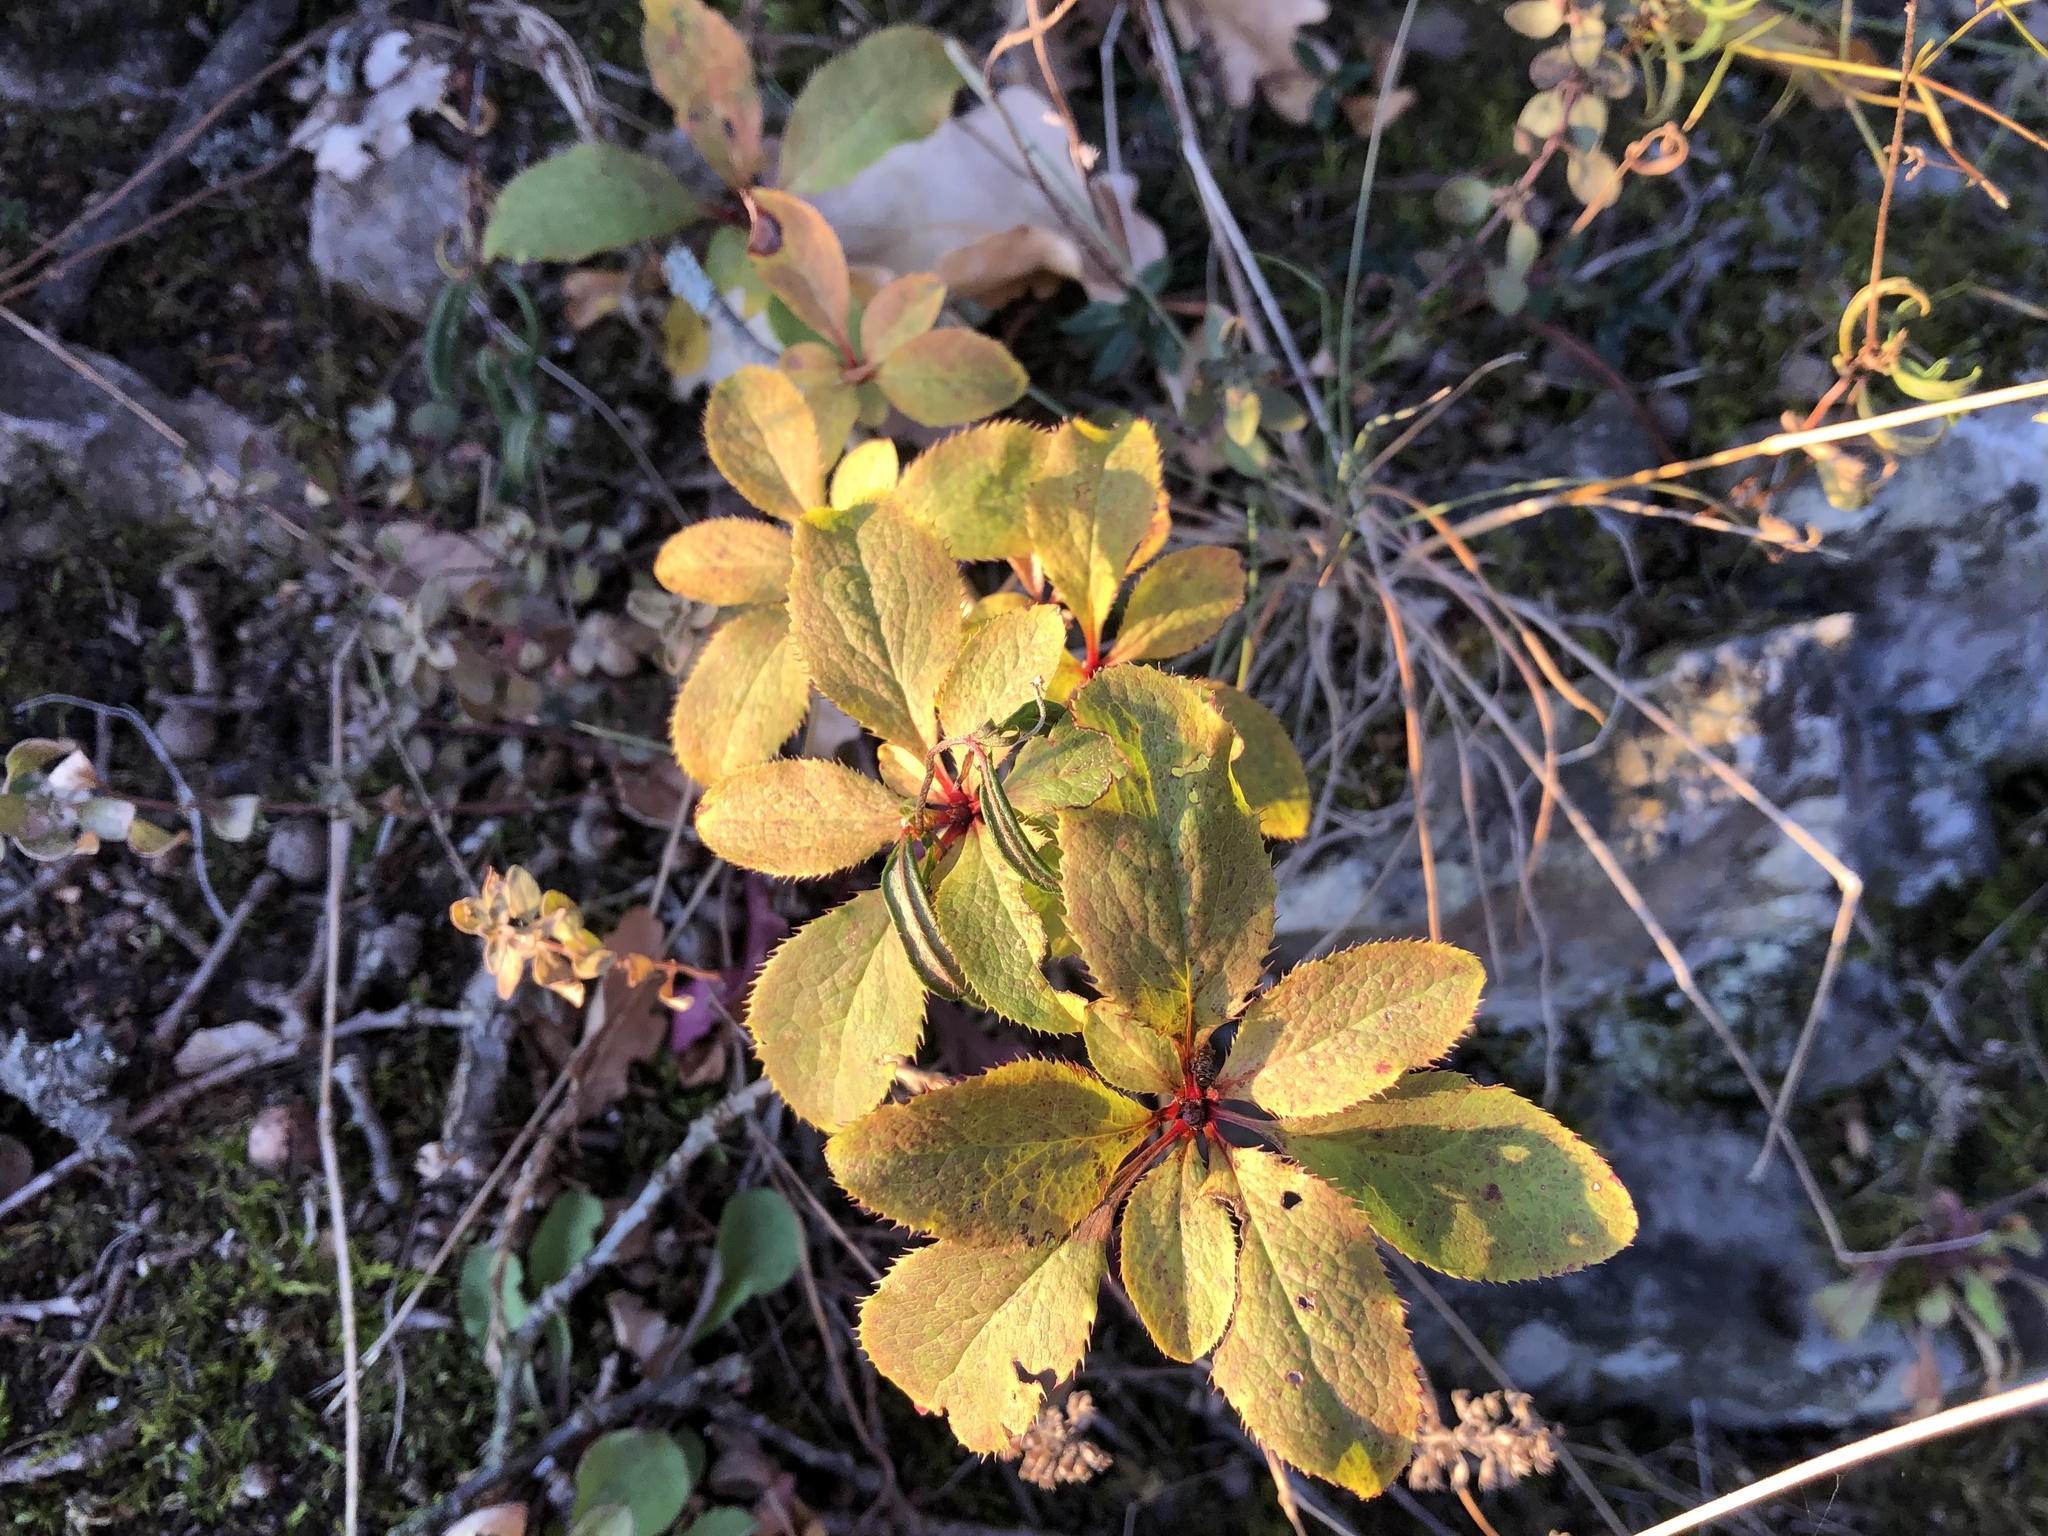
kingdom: Plantae
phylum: Tracheophyta
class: Magnoliopsida
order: Ranunculales
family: Berberidaceae
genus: Berberis
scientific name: Berberis vulgaris
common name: Barberry
